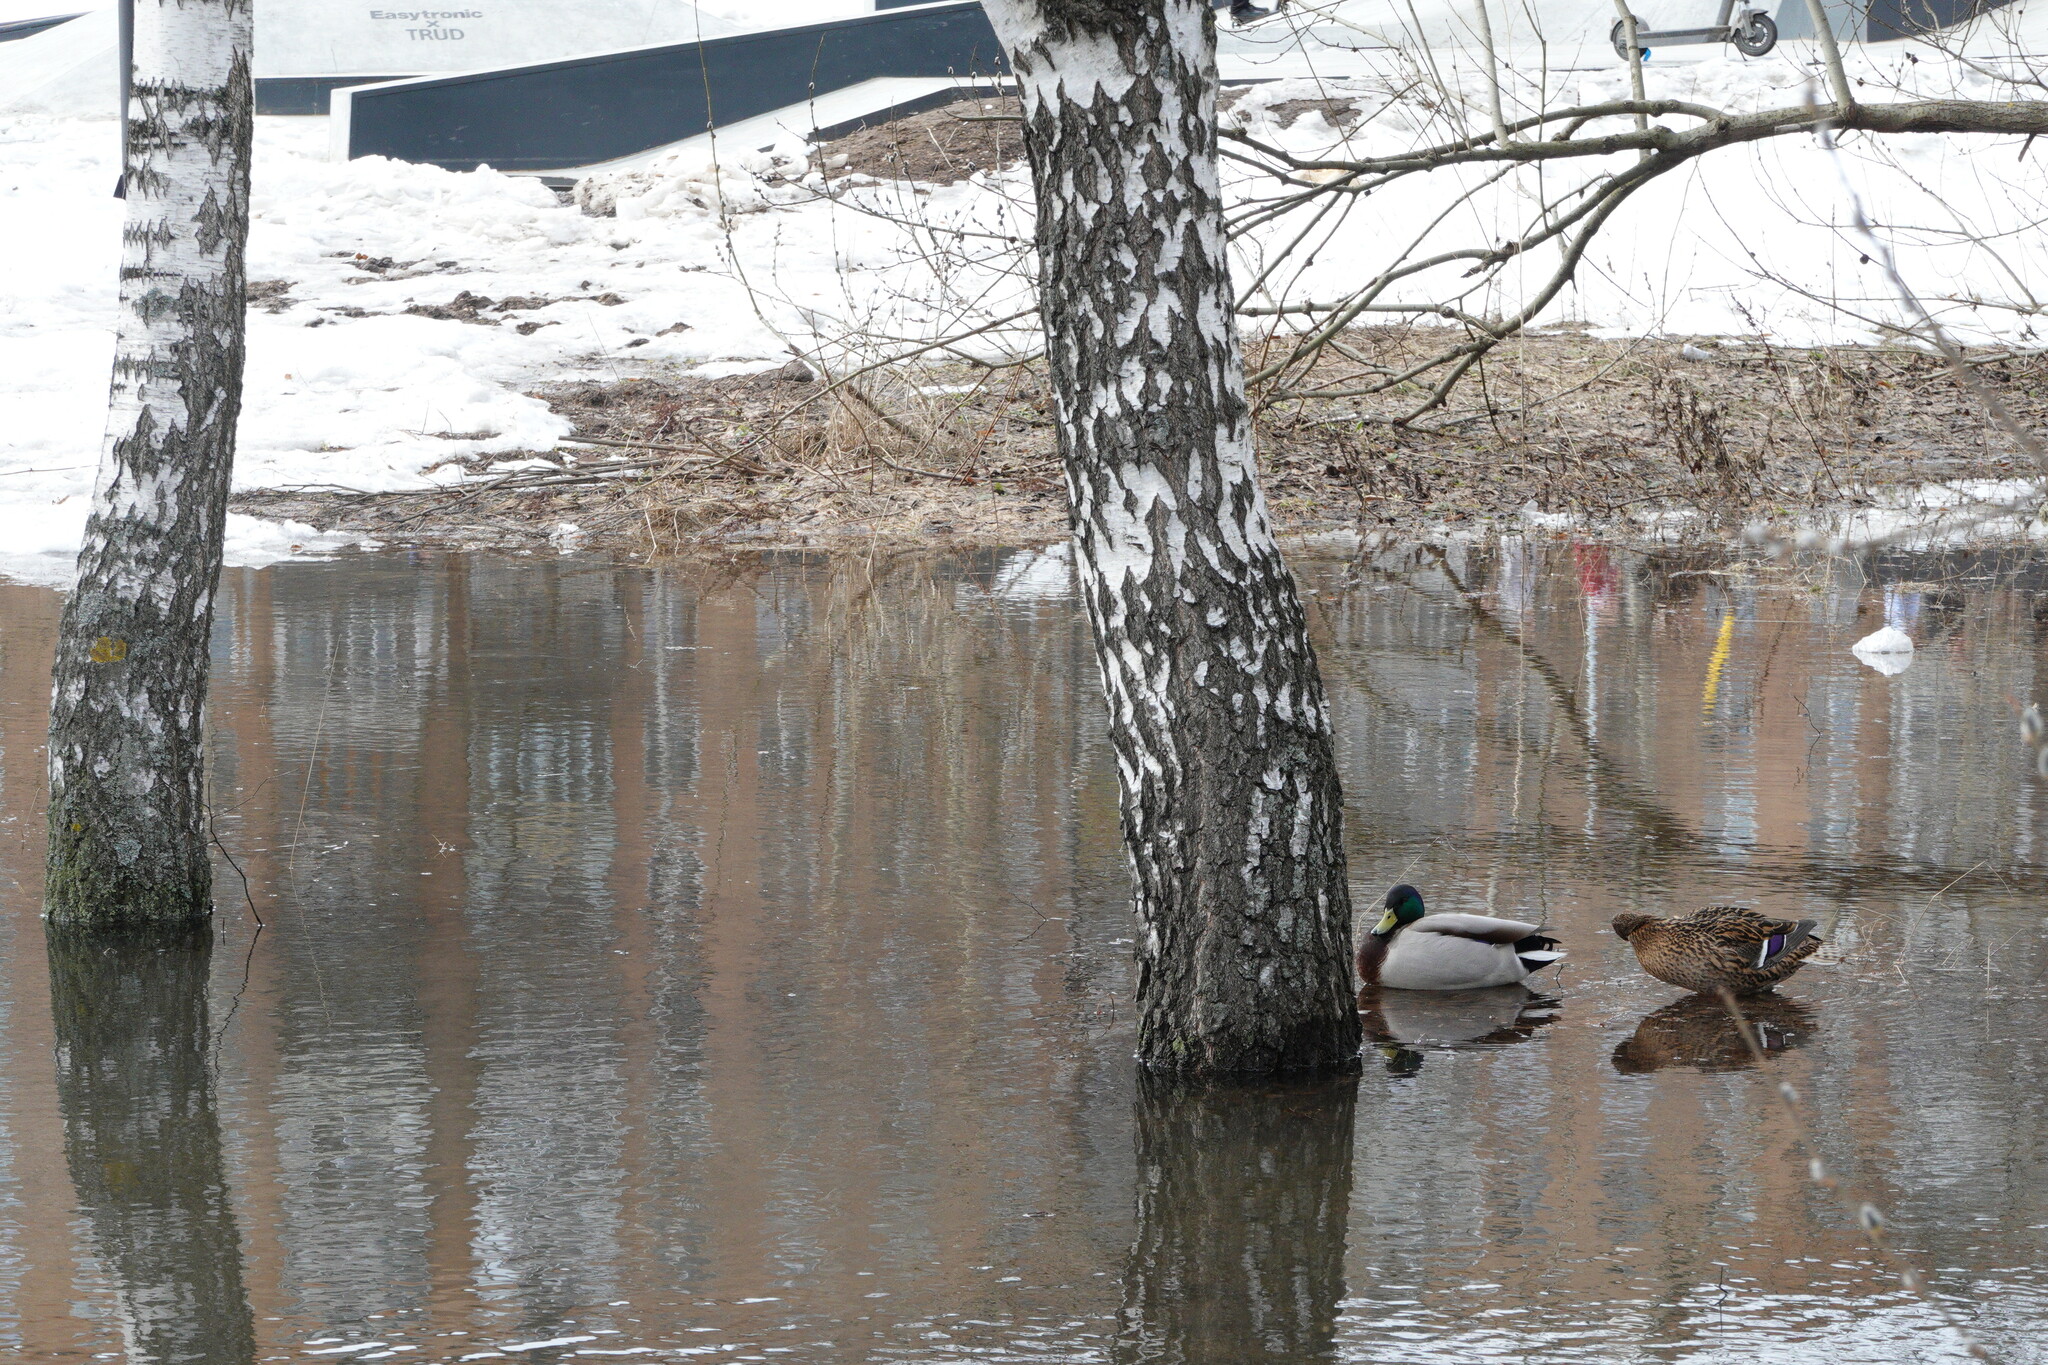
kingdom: Animalia
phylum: Chordata
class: Aves
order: Anseriformes
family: Anatidae
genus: Anas
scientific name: Anas platyrhynchos
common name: Mallard
